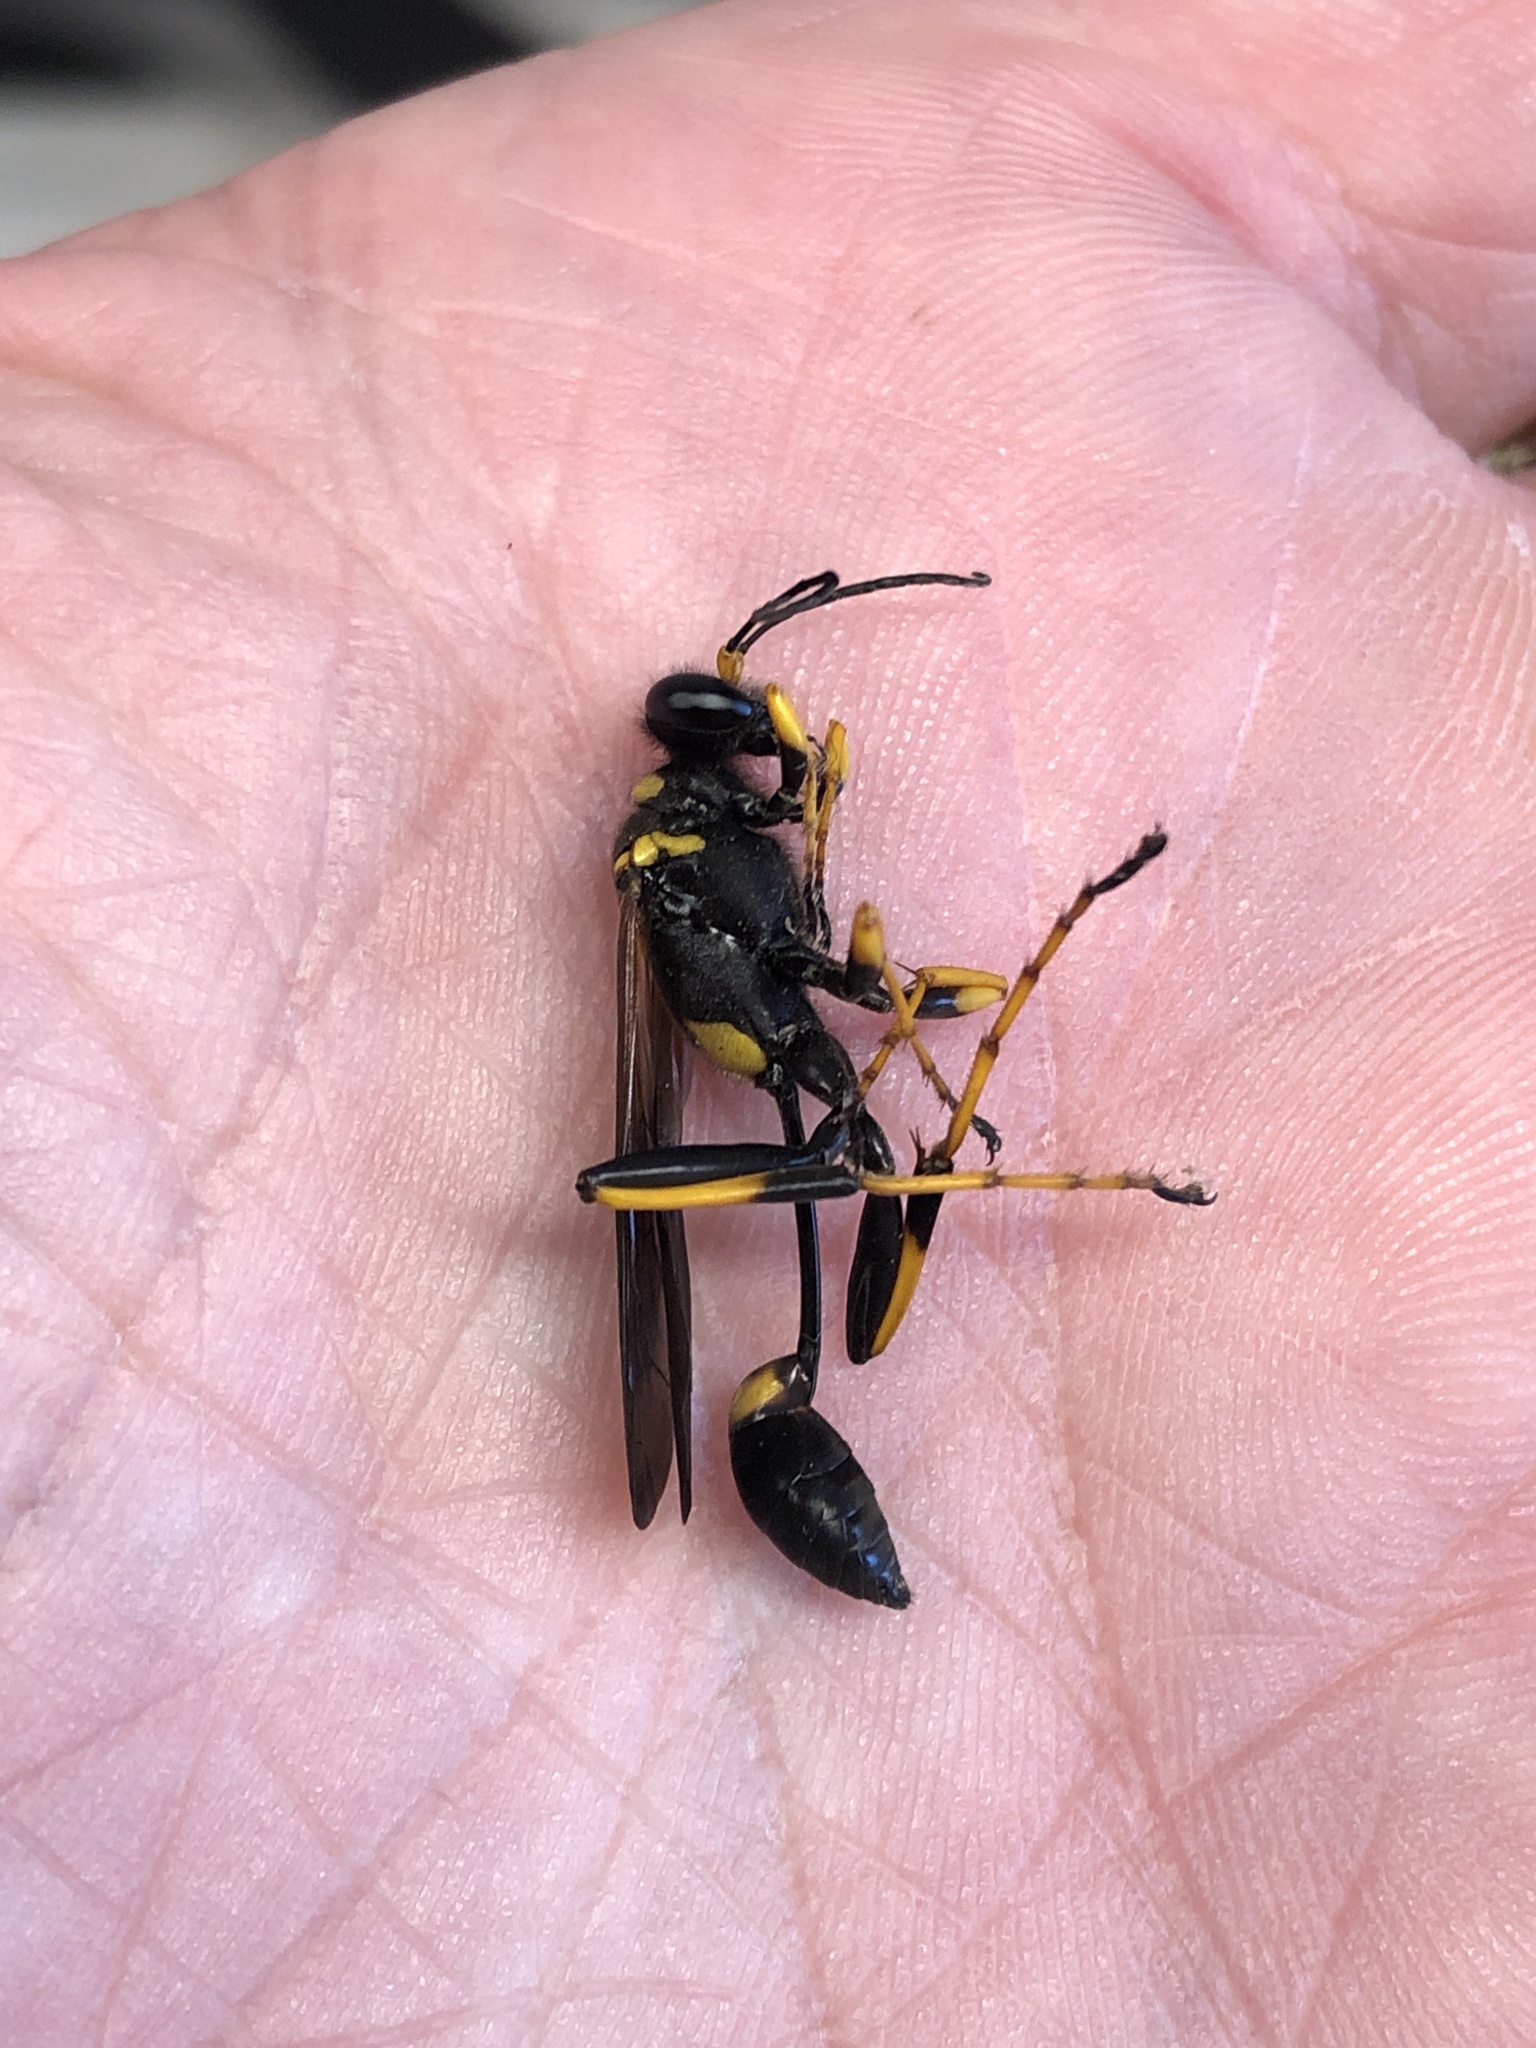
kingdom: Animalia
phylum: Arthropoda
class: Insecta
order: Hymenoptera
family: Sphecidae
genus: Sceliphron
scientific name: Sceliphron caementarium
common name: Mud dauber
